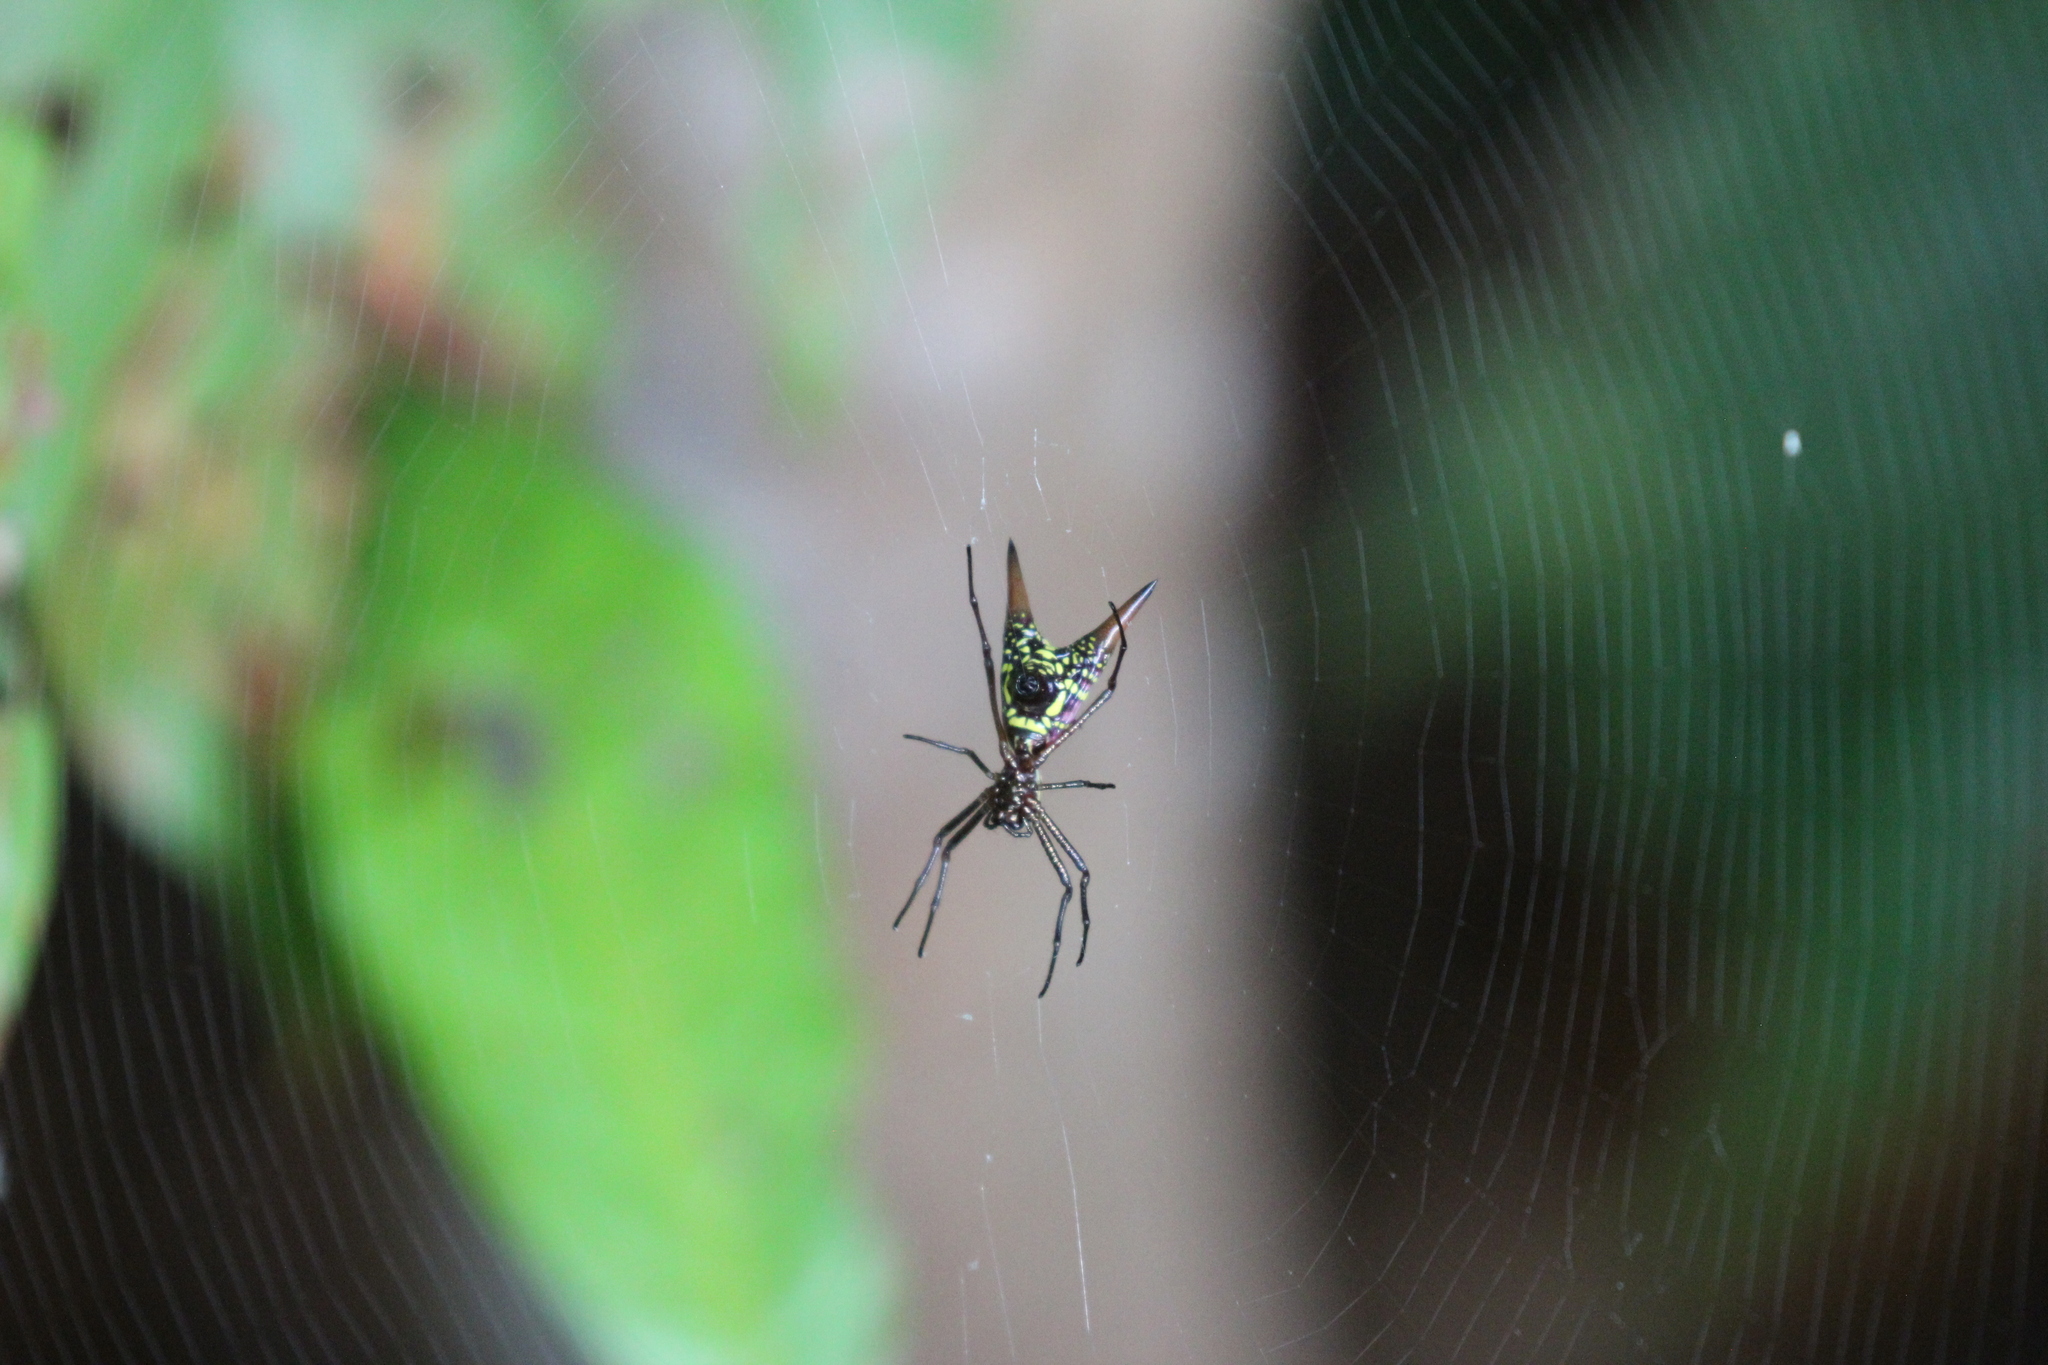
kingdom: Animalia
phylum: Arthropoda
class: Arachnida
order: Araneae
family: Araneidae
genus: Micrathena
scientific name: Micrathena sexspinosa
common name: Orb weavers
